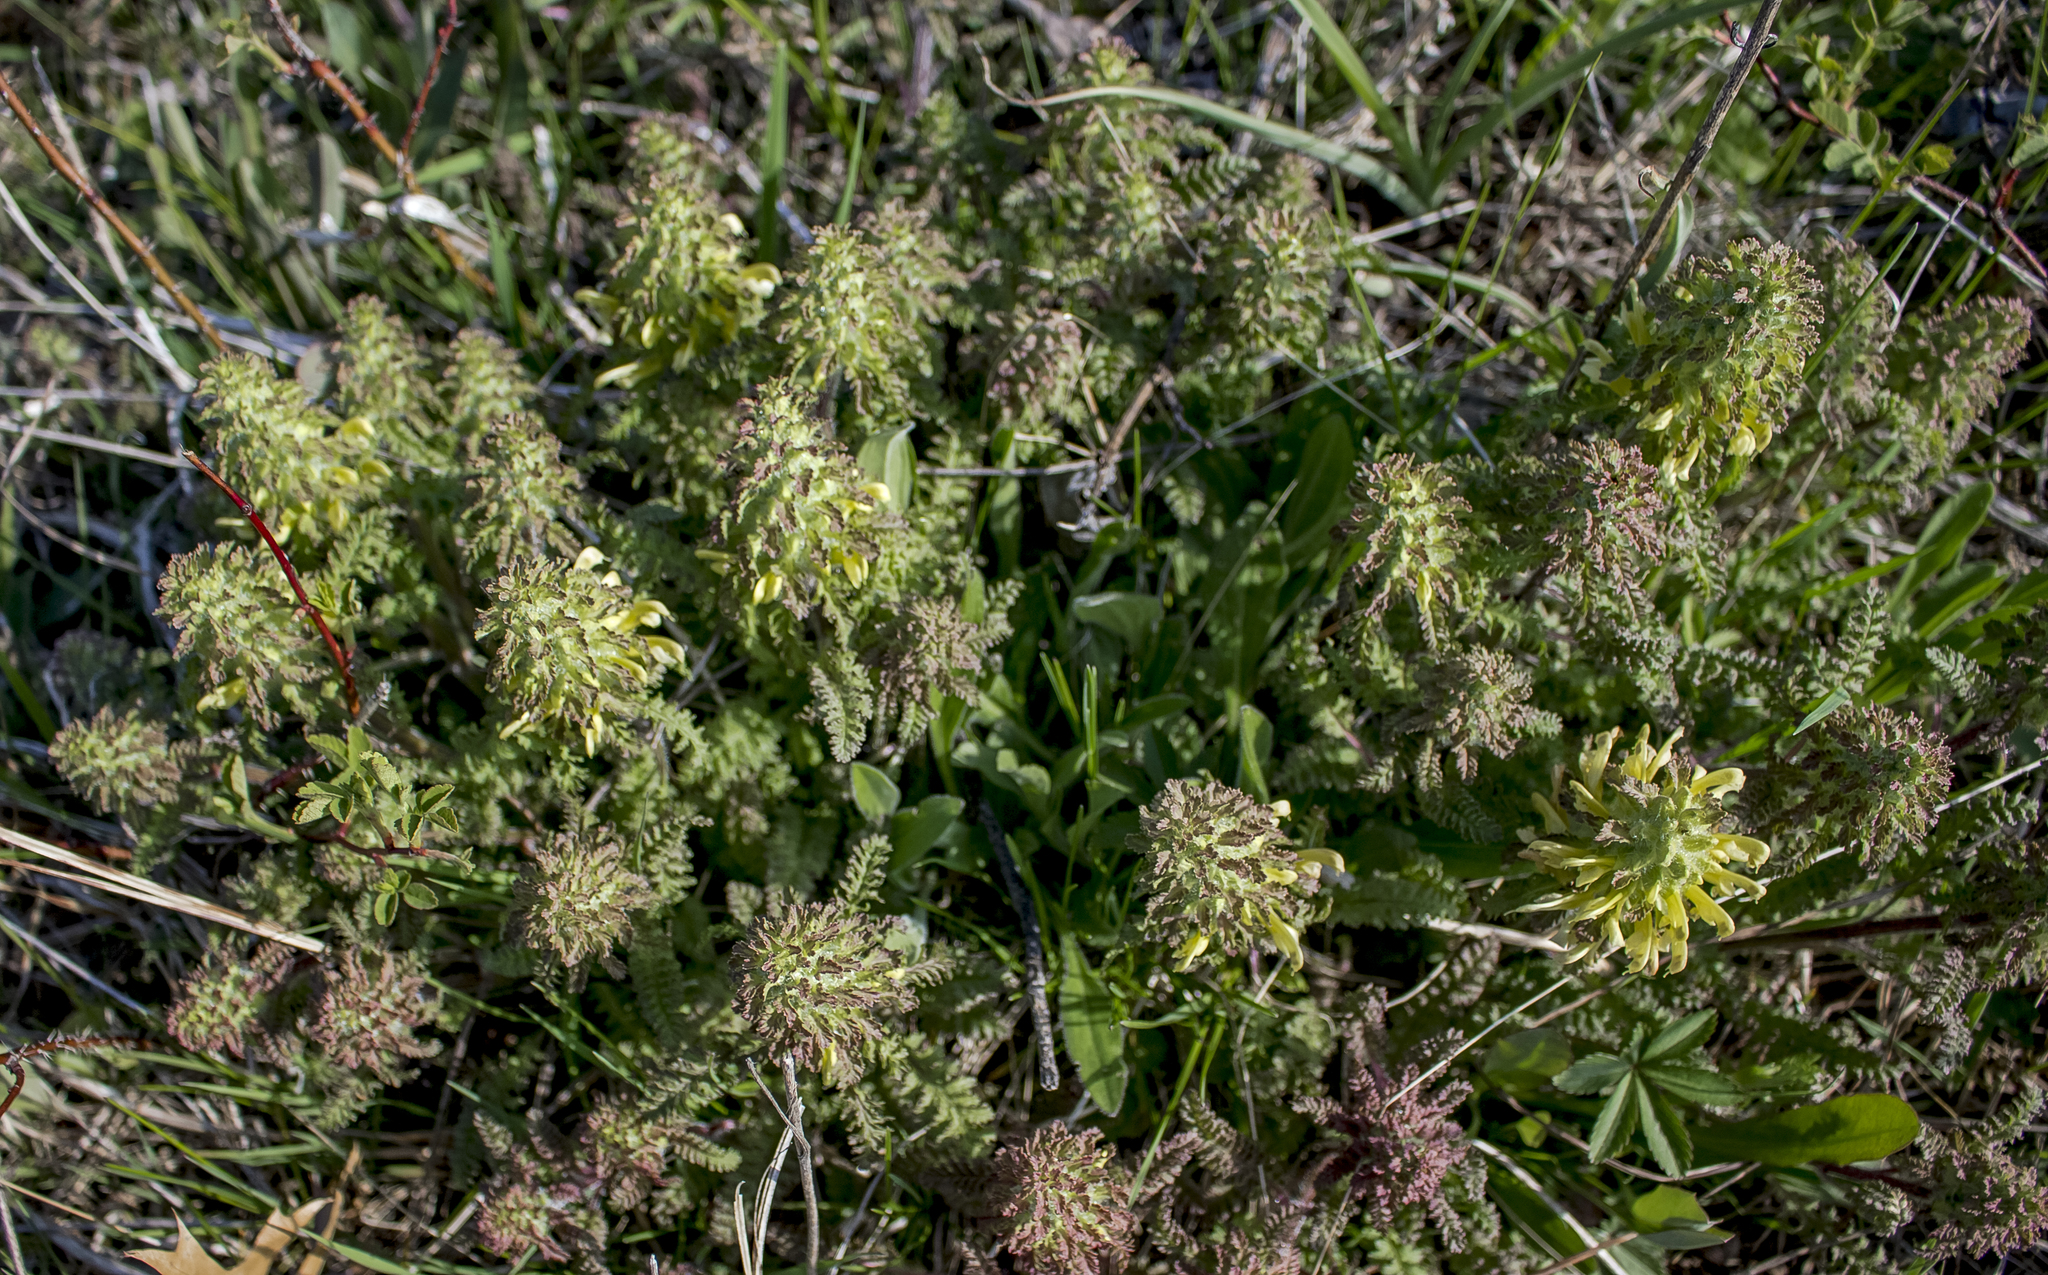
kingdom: Plantae
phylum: Tracheophyta
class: Magnoliopsida
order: Lamiales
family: Orobanchaceae
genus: Pedicularis
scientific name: Pedicularis canadensis
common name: Early lousewort
